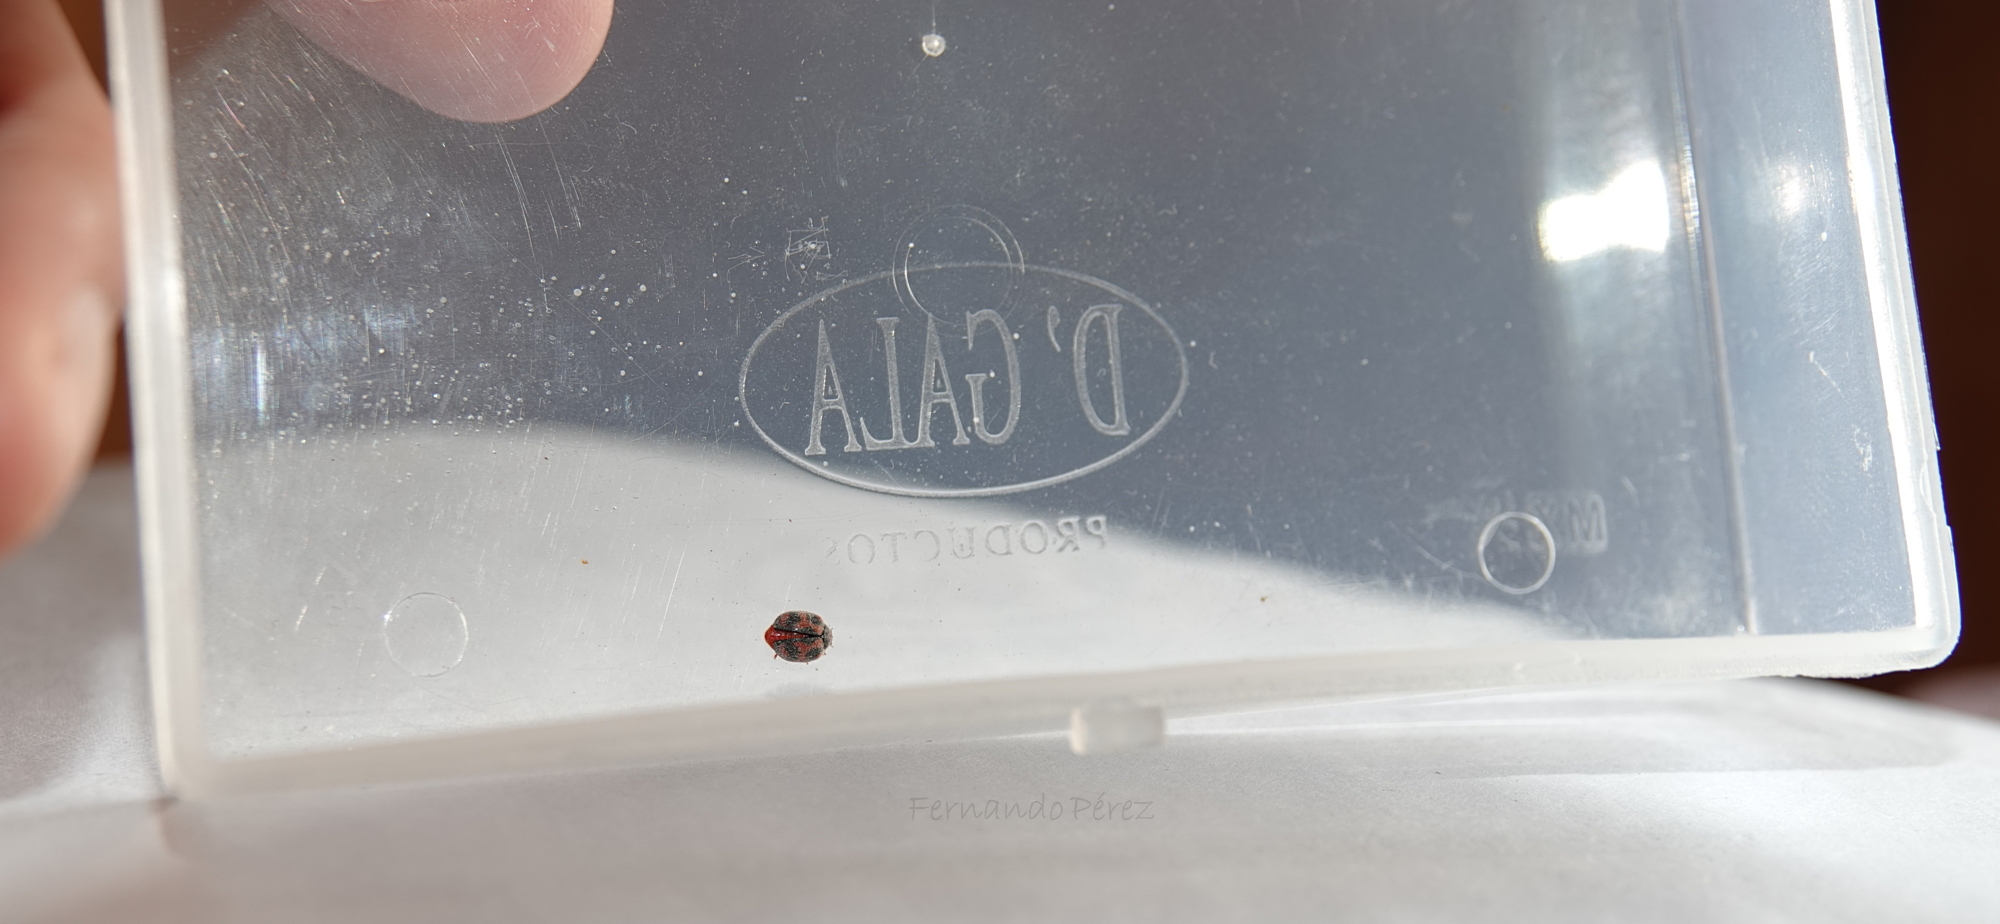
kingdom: Animalia
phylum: Arthropoda
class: Insecta
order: Coleoptera
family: Coccinellidae
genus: Novius
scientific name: Novius cardinalis
